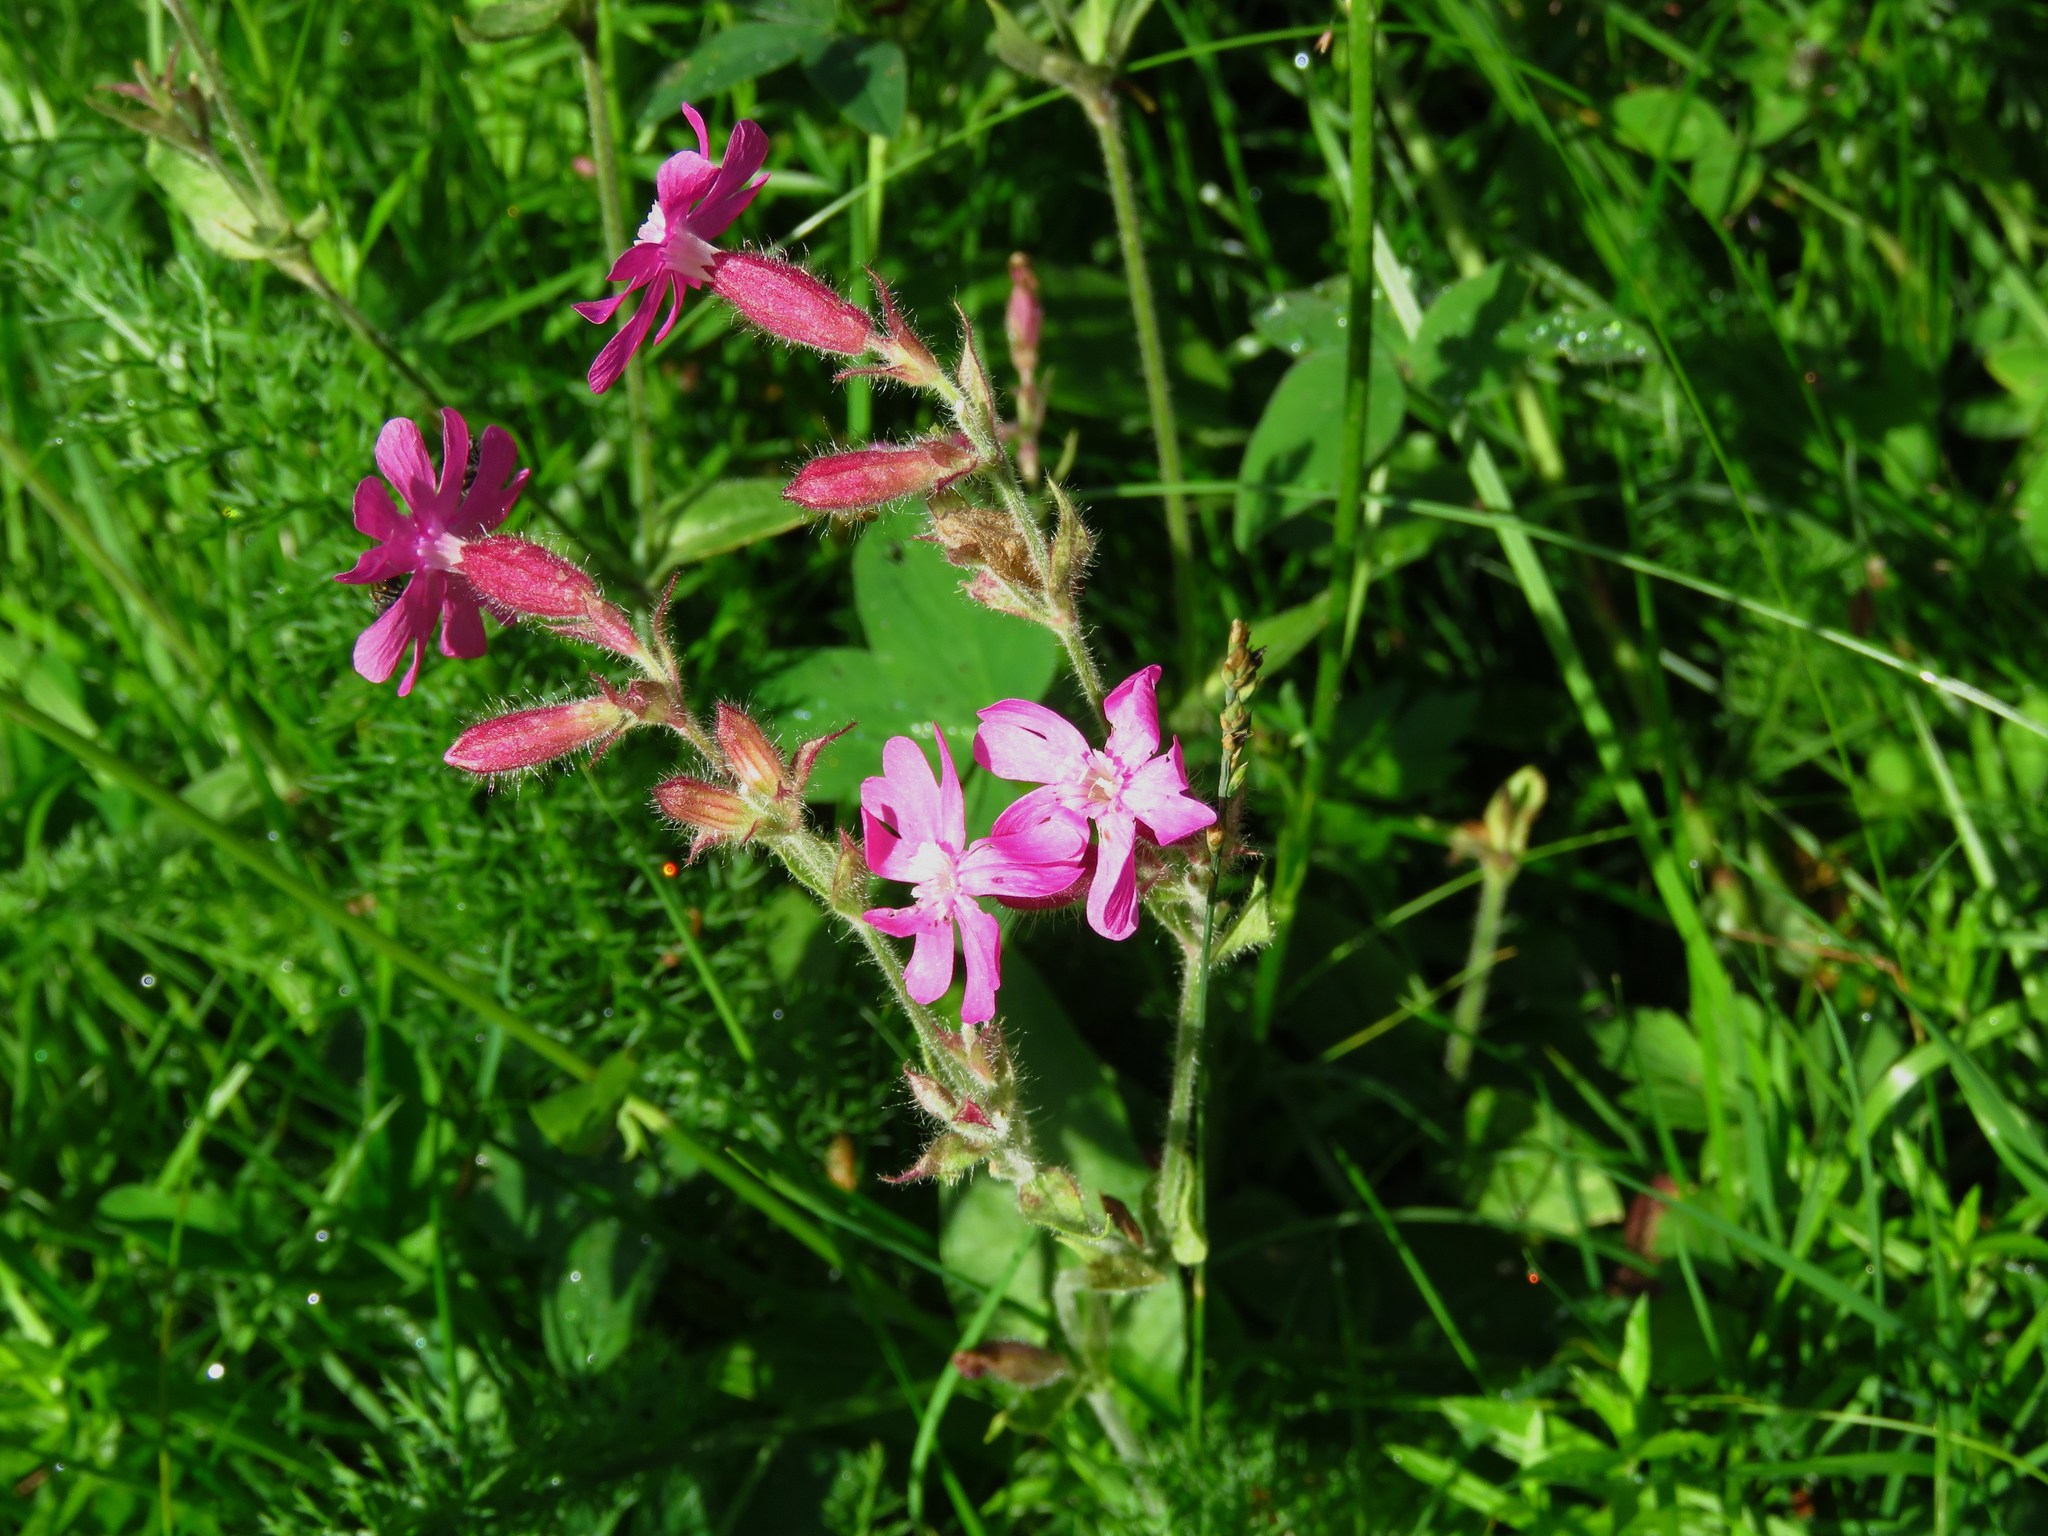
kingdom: Plantae
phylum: Tracheophyta
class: Magnoliopsida
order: Caryophyllales
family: Caryophyllaceae
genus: Silene
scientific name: Silene dioica
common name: Red campion
